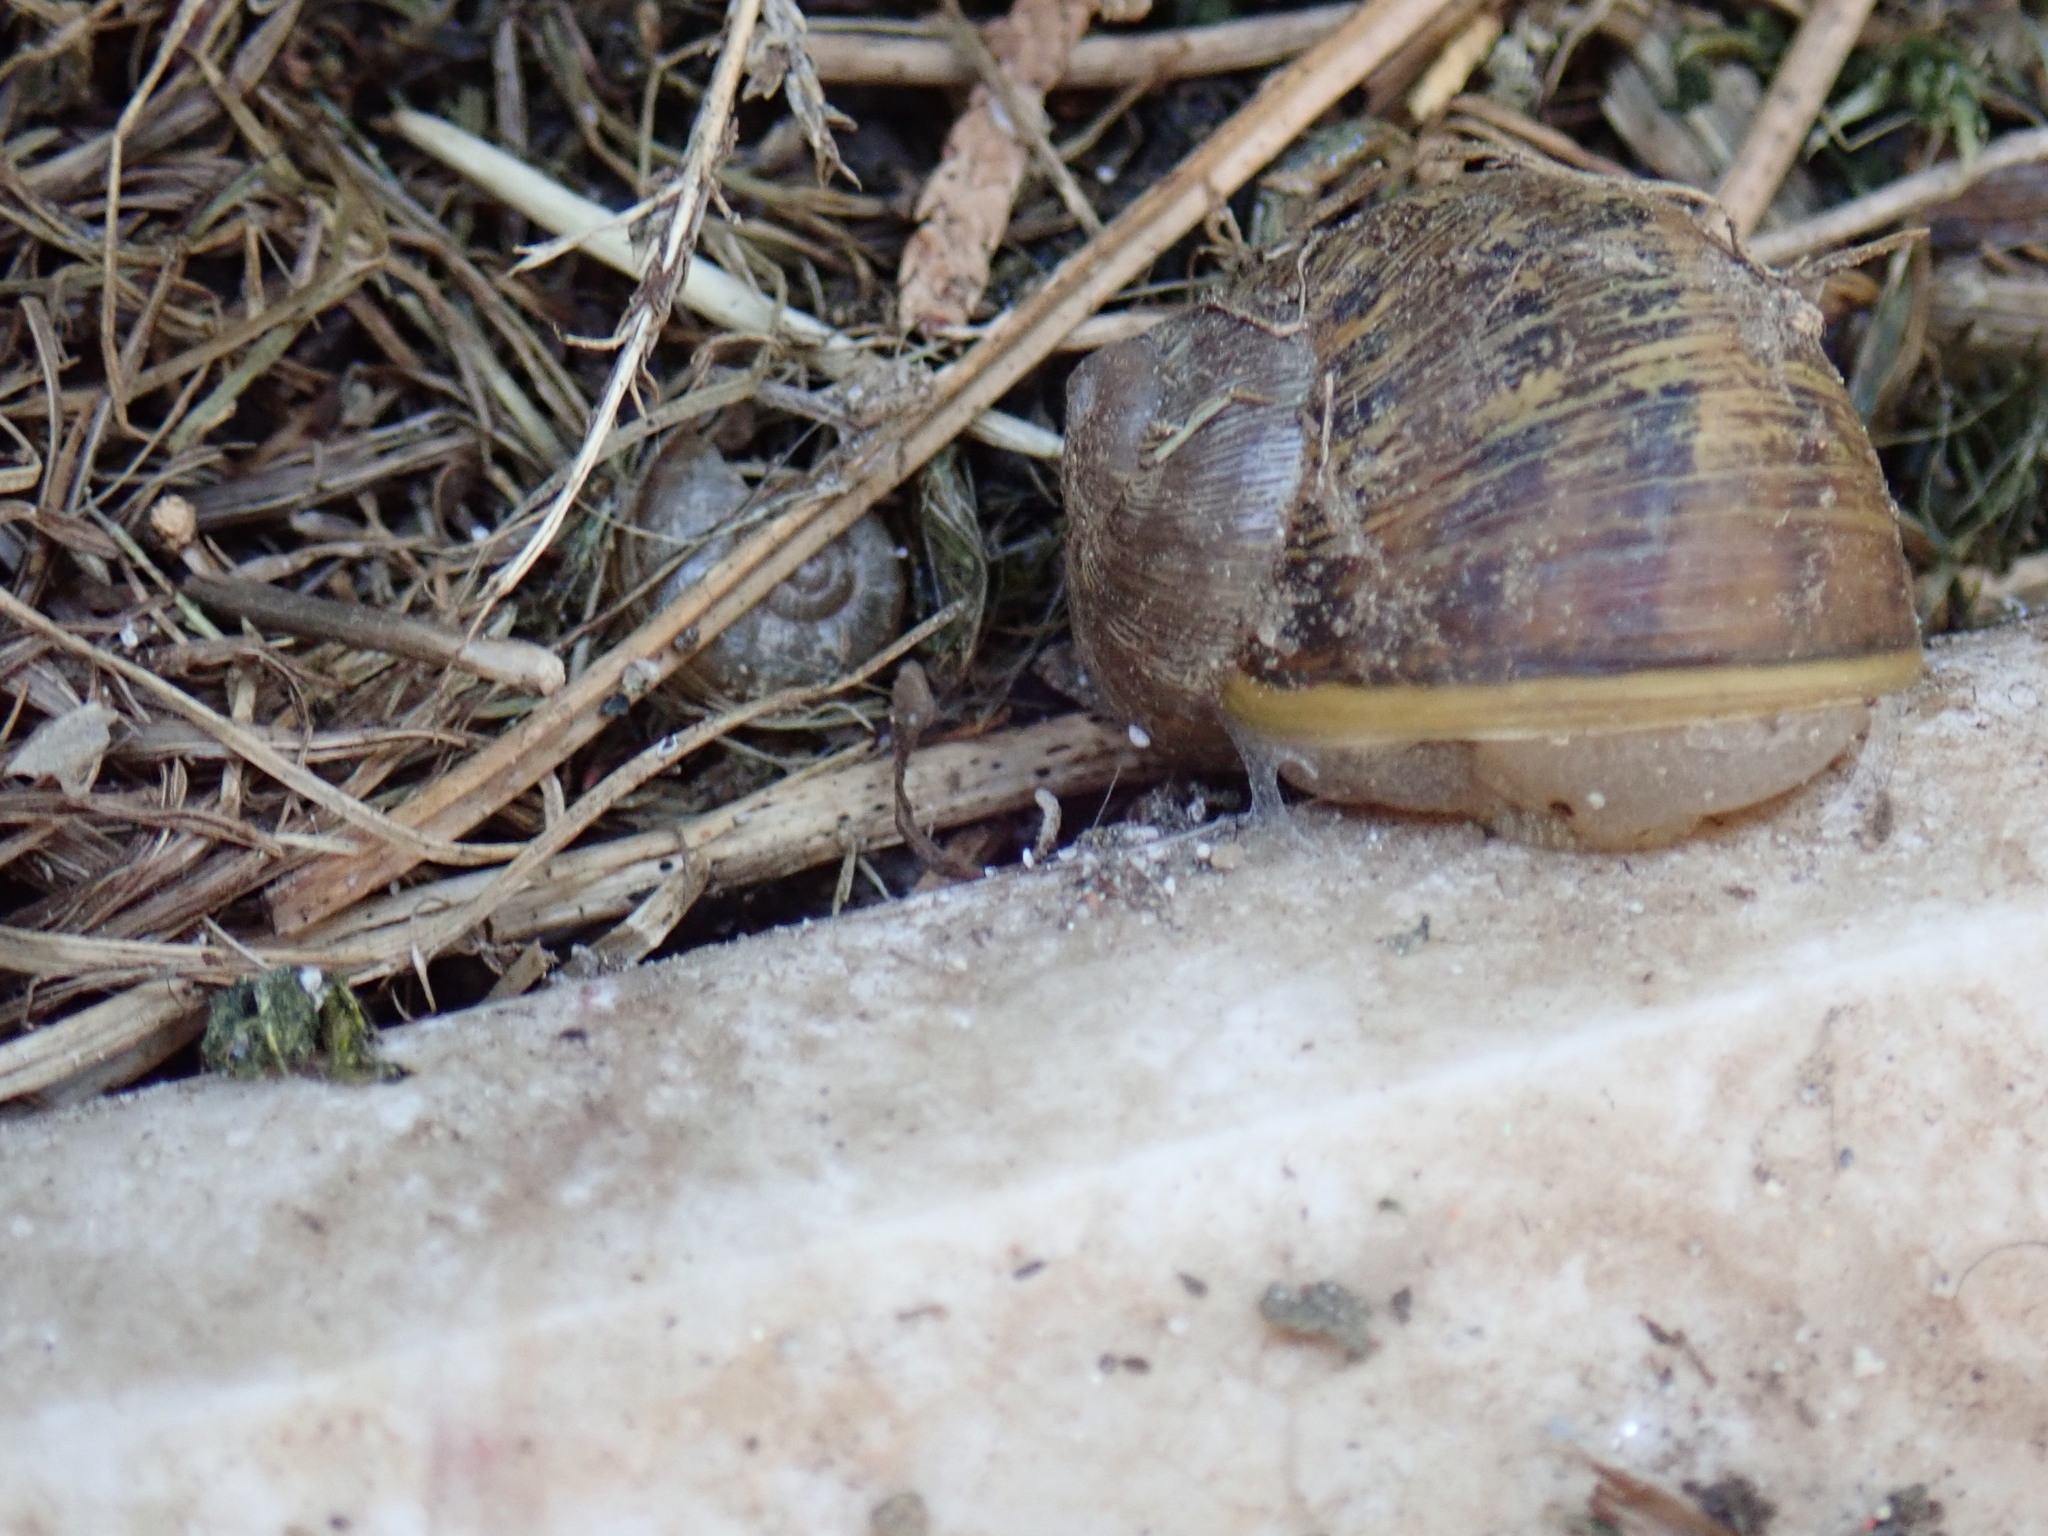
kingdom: Animalia
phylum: Mollusca
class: Gastropoda
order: Stylommatophora
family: Helicidae
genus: Cornu
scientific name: Cornu aspersum
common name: Brown garden snail
